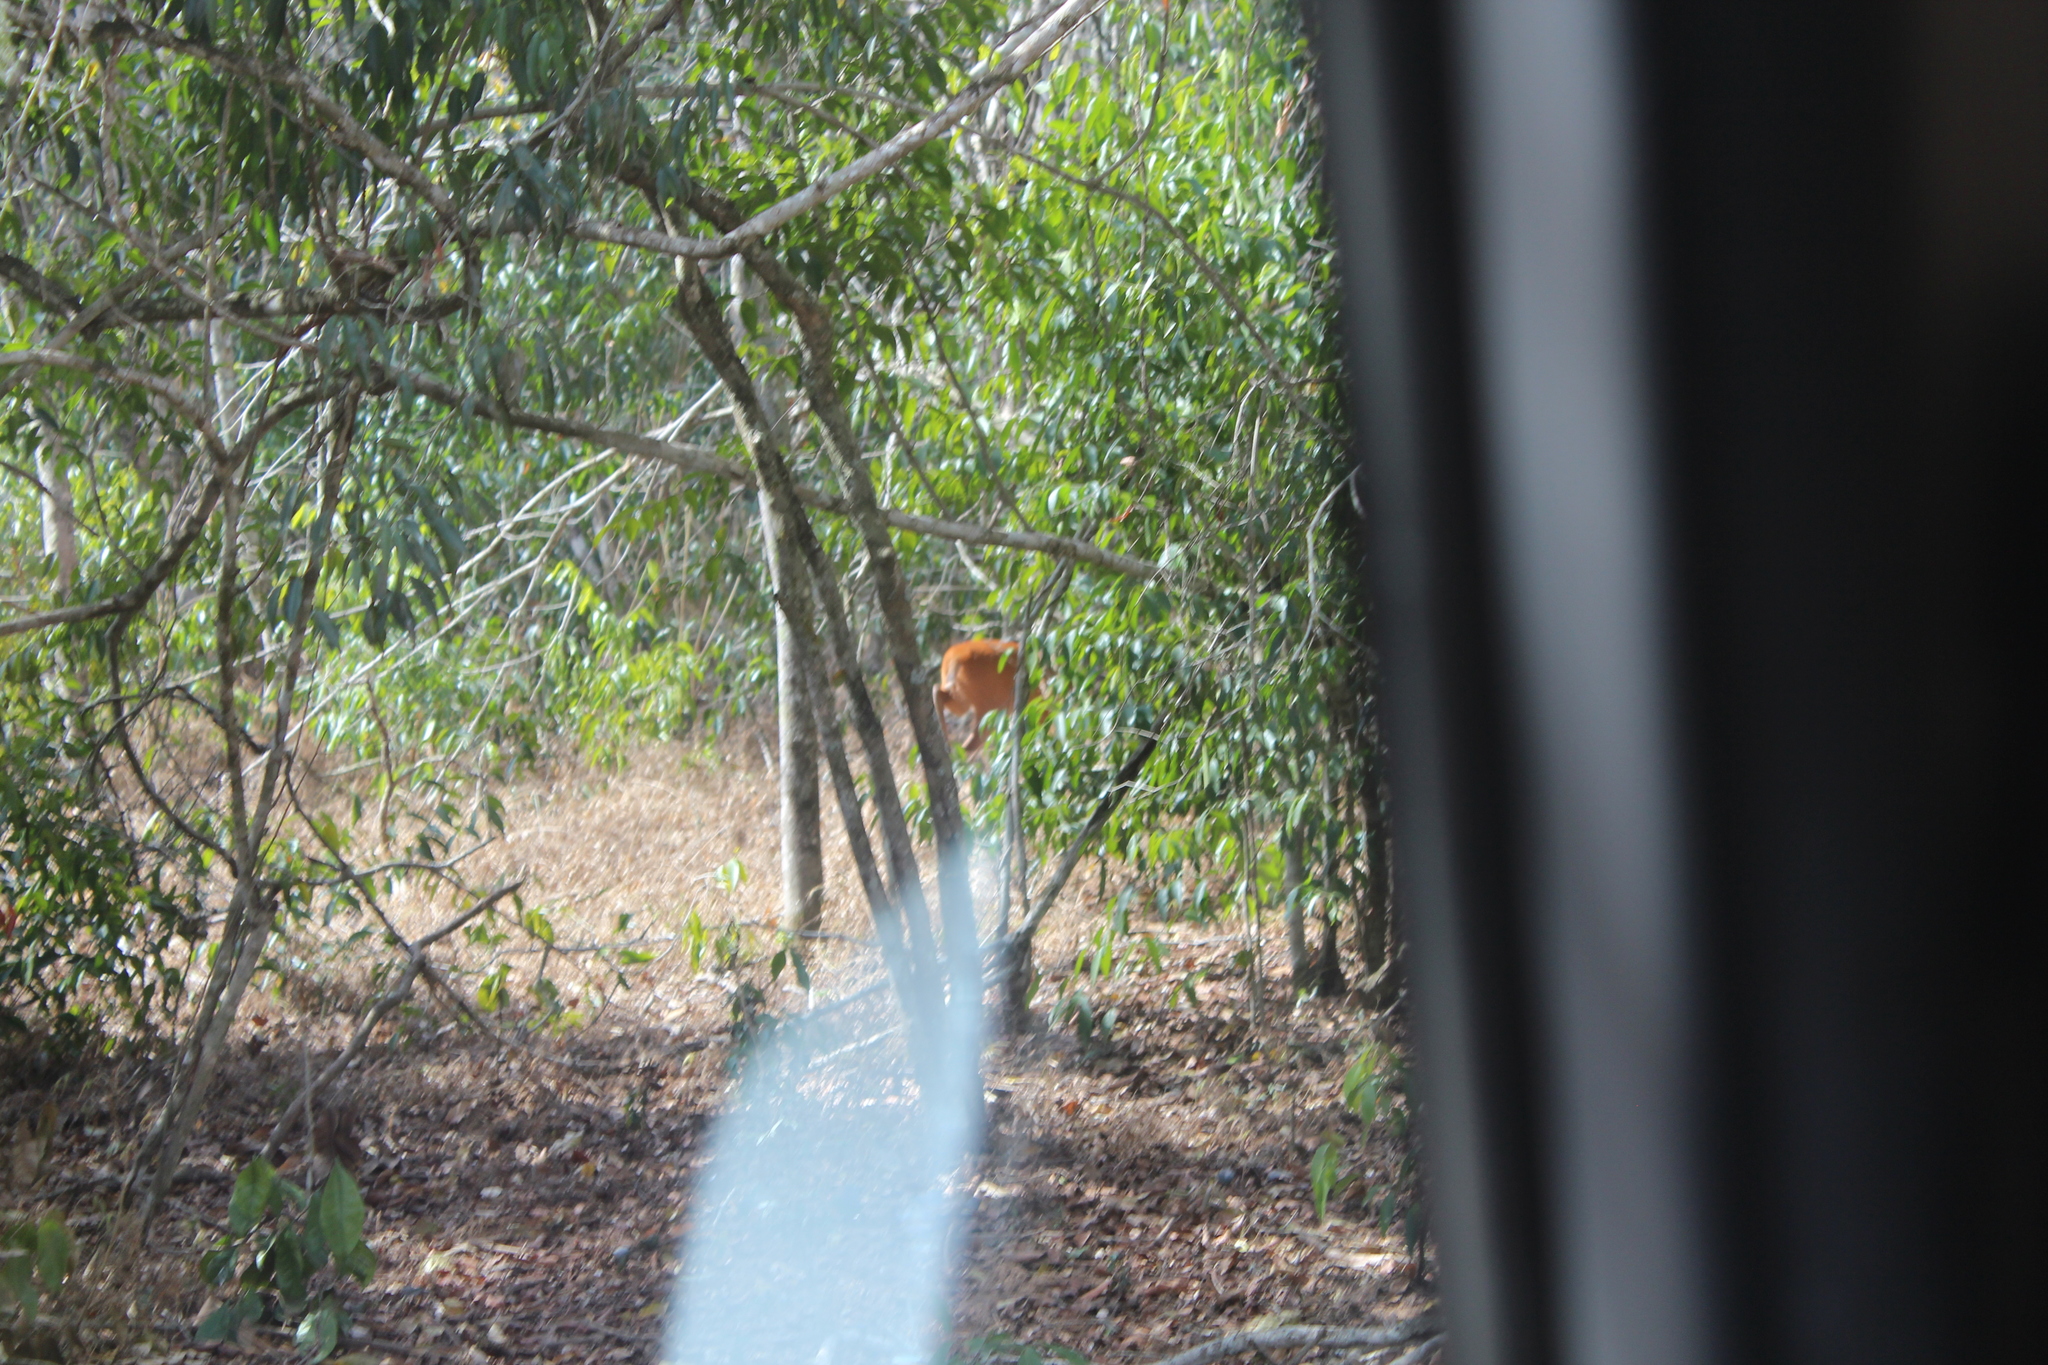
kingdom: Animalia
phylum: Chordata
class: Mammalia
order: Artiodactyla
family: Bovidae
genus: Cephalophus
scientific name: Cephalophus natalensis
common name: Red duiker
